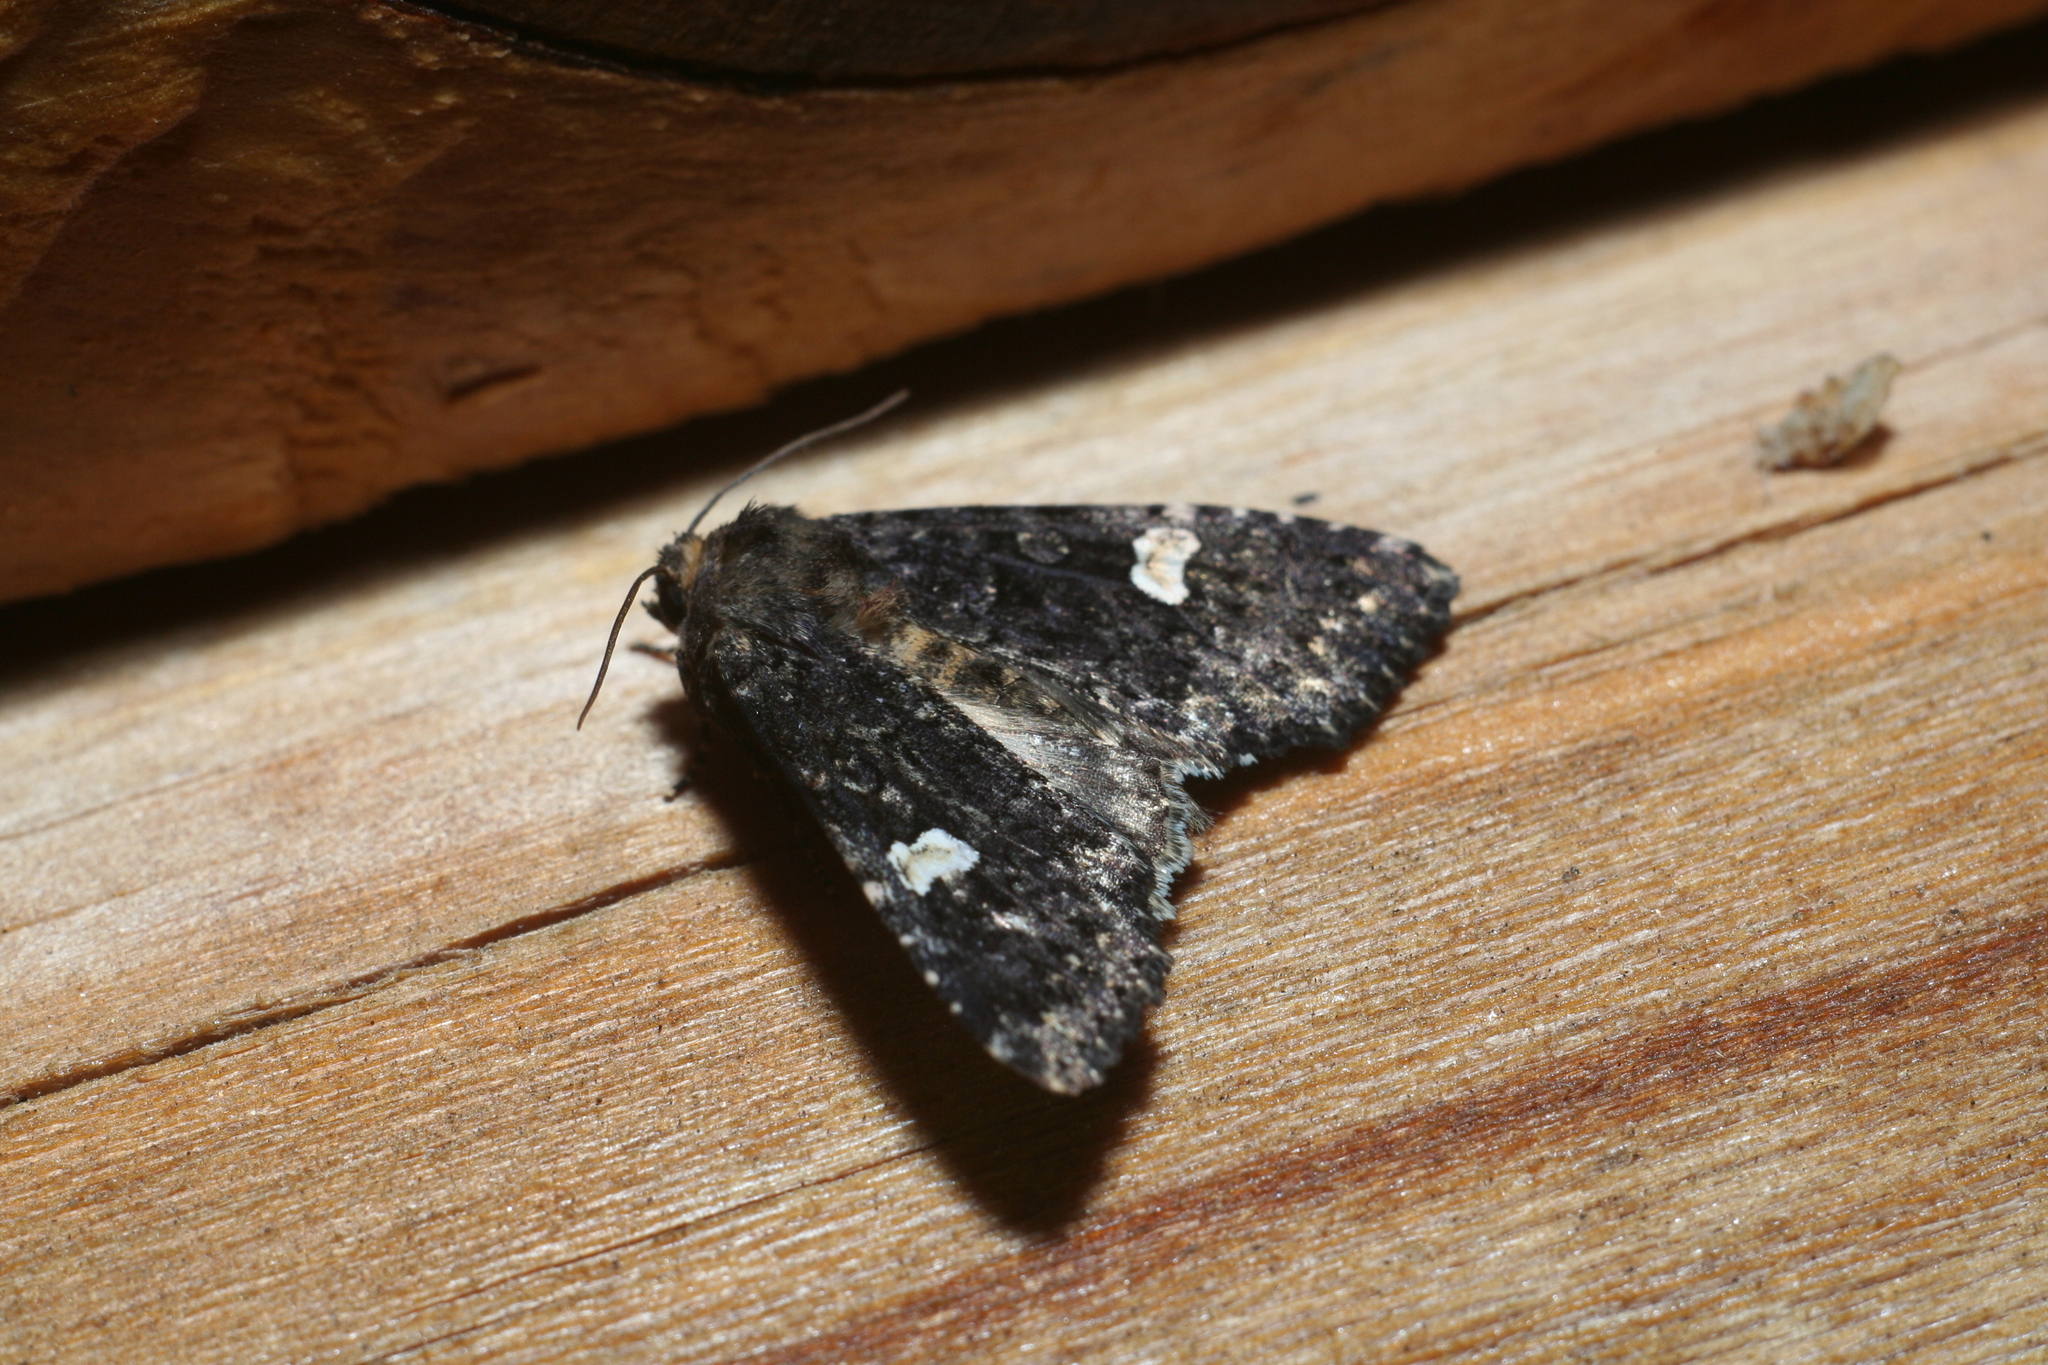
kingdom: Animalia
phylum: Arthropoda
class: Insecta
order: Lepidoptera
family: Noctuidae
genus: Melanchra
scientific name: Melanchra persicariae
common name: Dot moth
